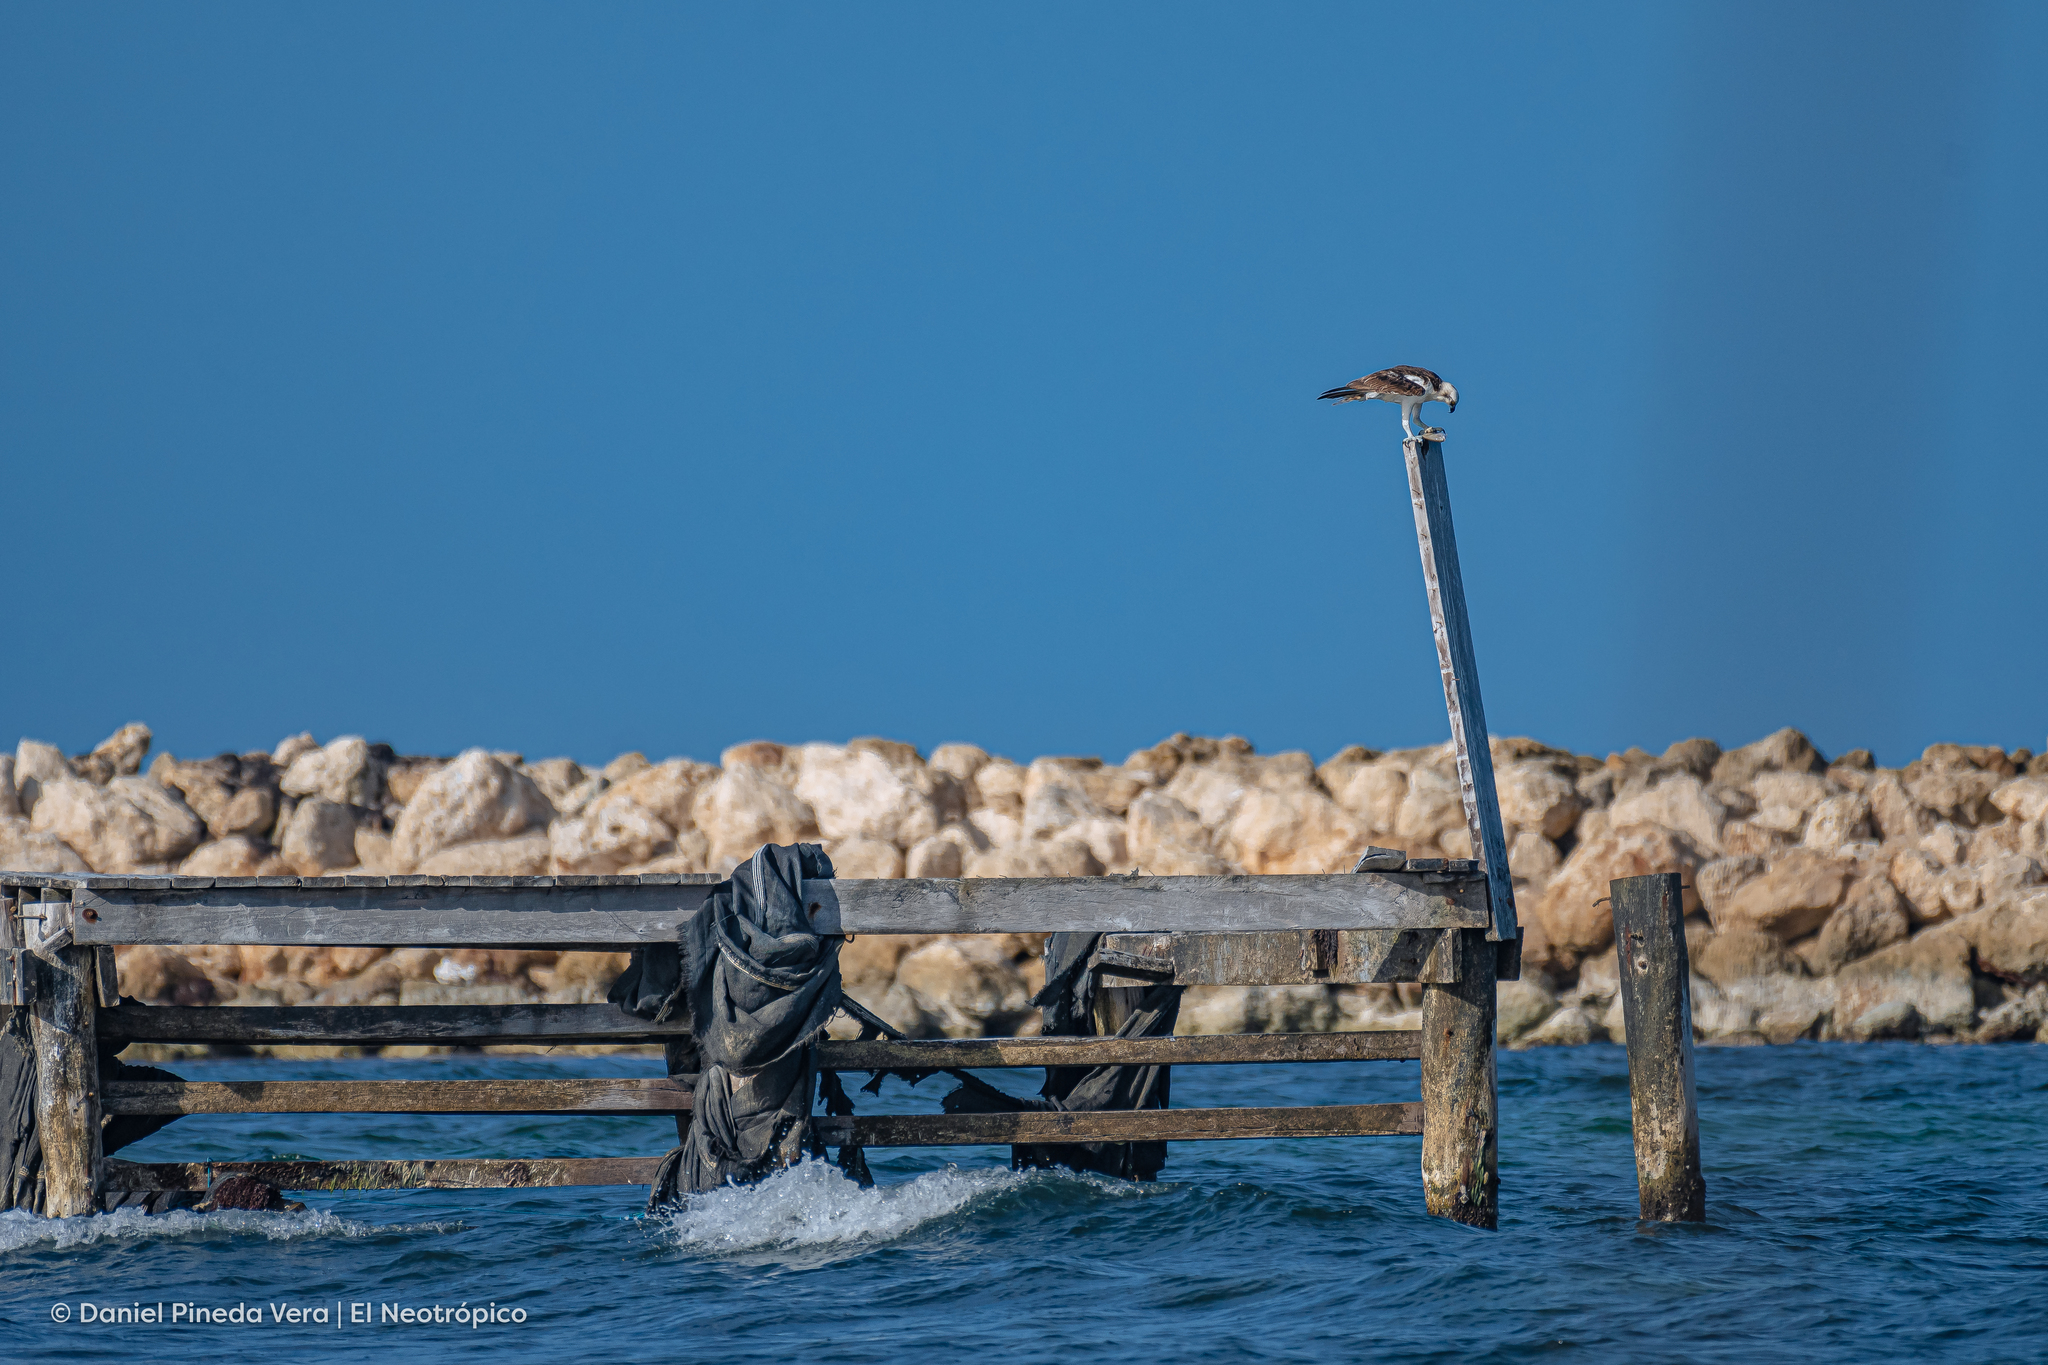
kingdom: Animalia
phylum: Chordata
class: Aves
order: Accipitriformes
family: Pandionidae
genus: Pandion
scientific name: Pandion haliaetus
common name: Osprey
